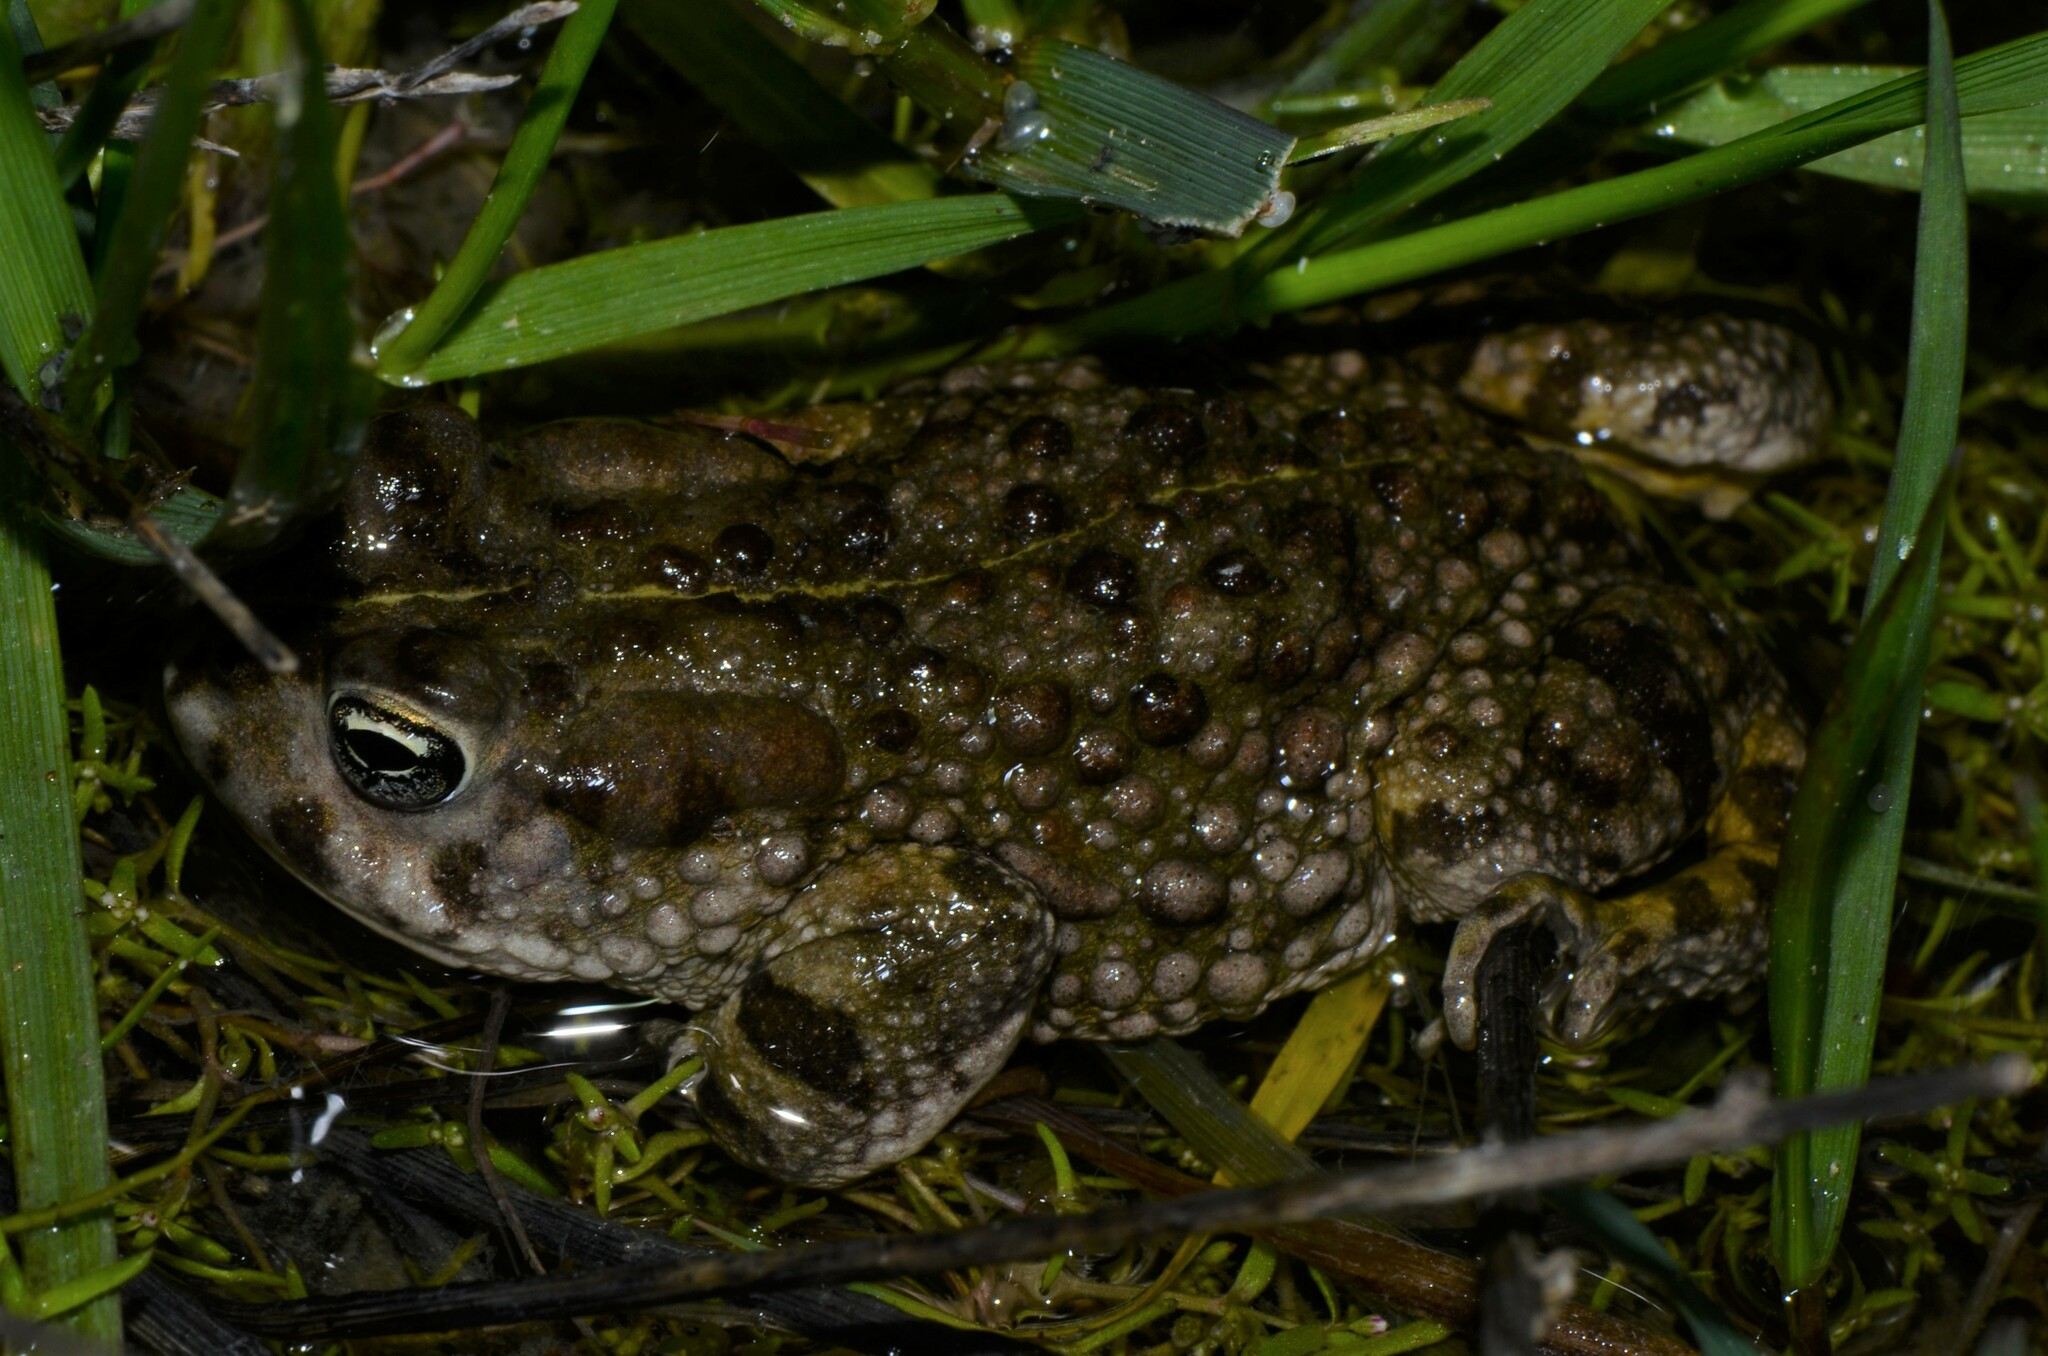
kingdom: Animalia
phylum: Chordata
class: Amphibia
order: Anura
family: Bufonidae
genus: Vandijkophrynus
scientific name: Vandijkophrynus angusticeps
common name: Sand toad
